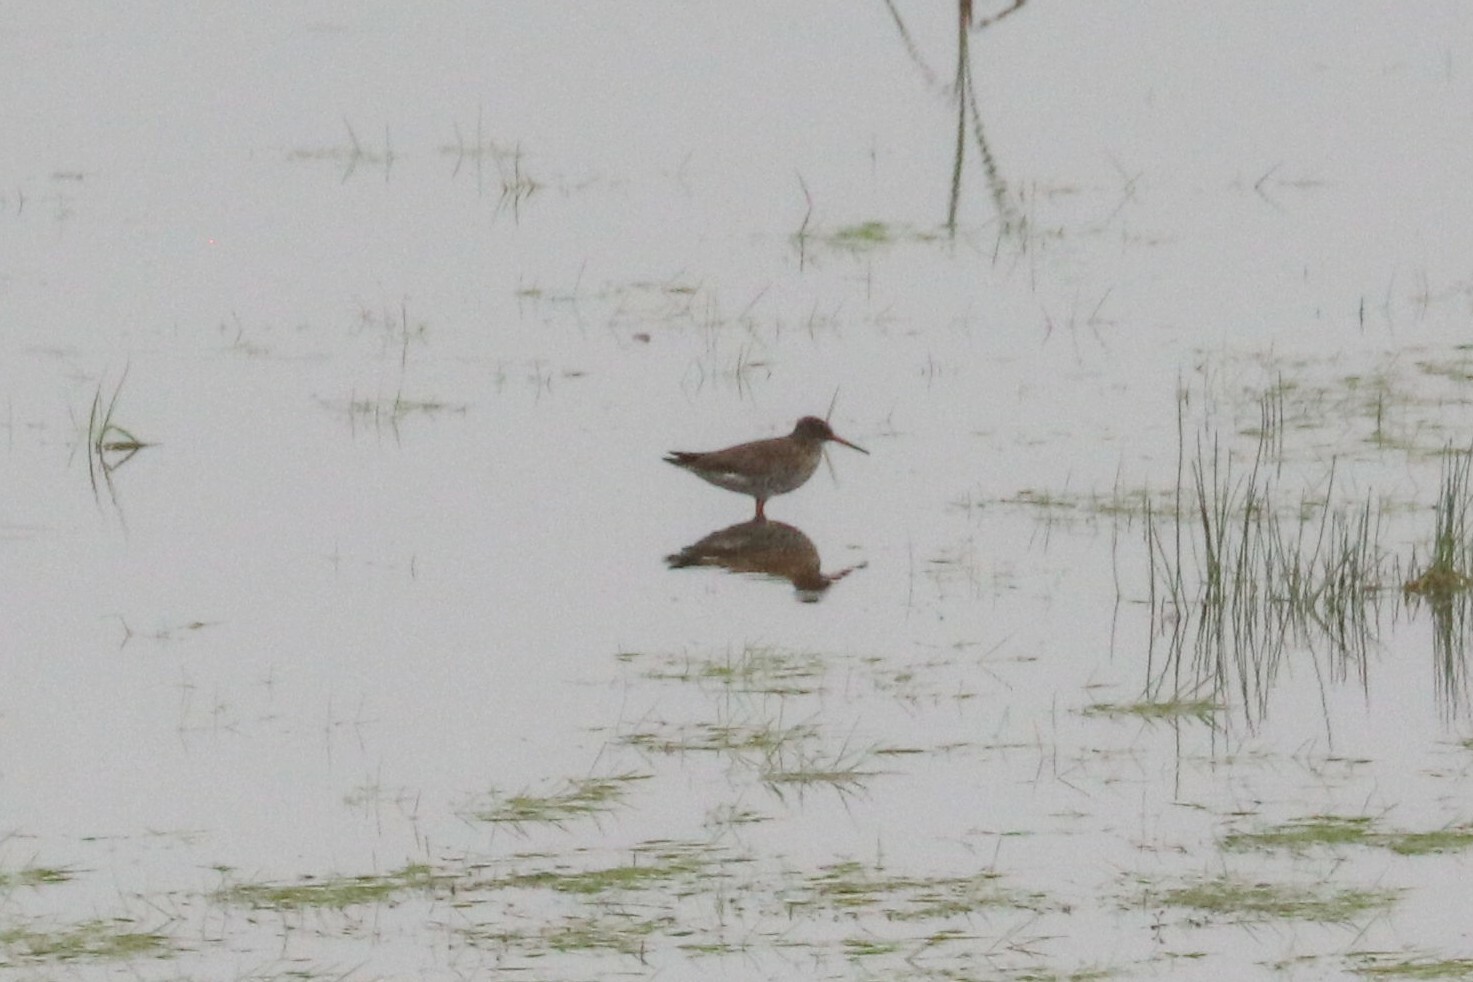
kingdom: Animalia
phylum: Chordata
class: Aves
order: Charadriiformes
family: Scolopacidae
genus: Tringa
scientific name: Tringa totanus
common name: Common redshank
